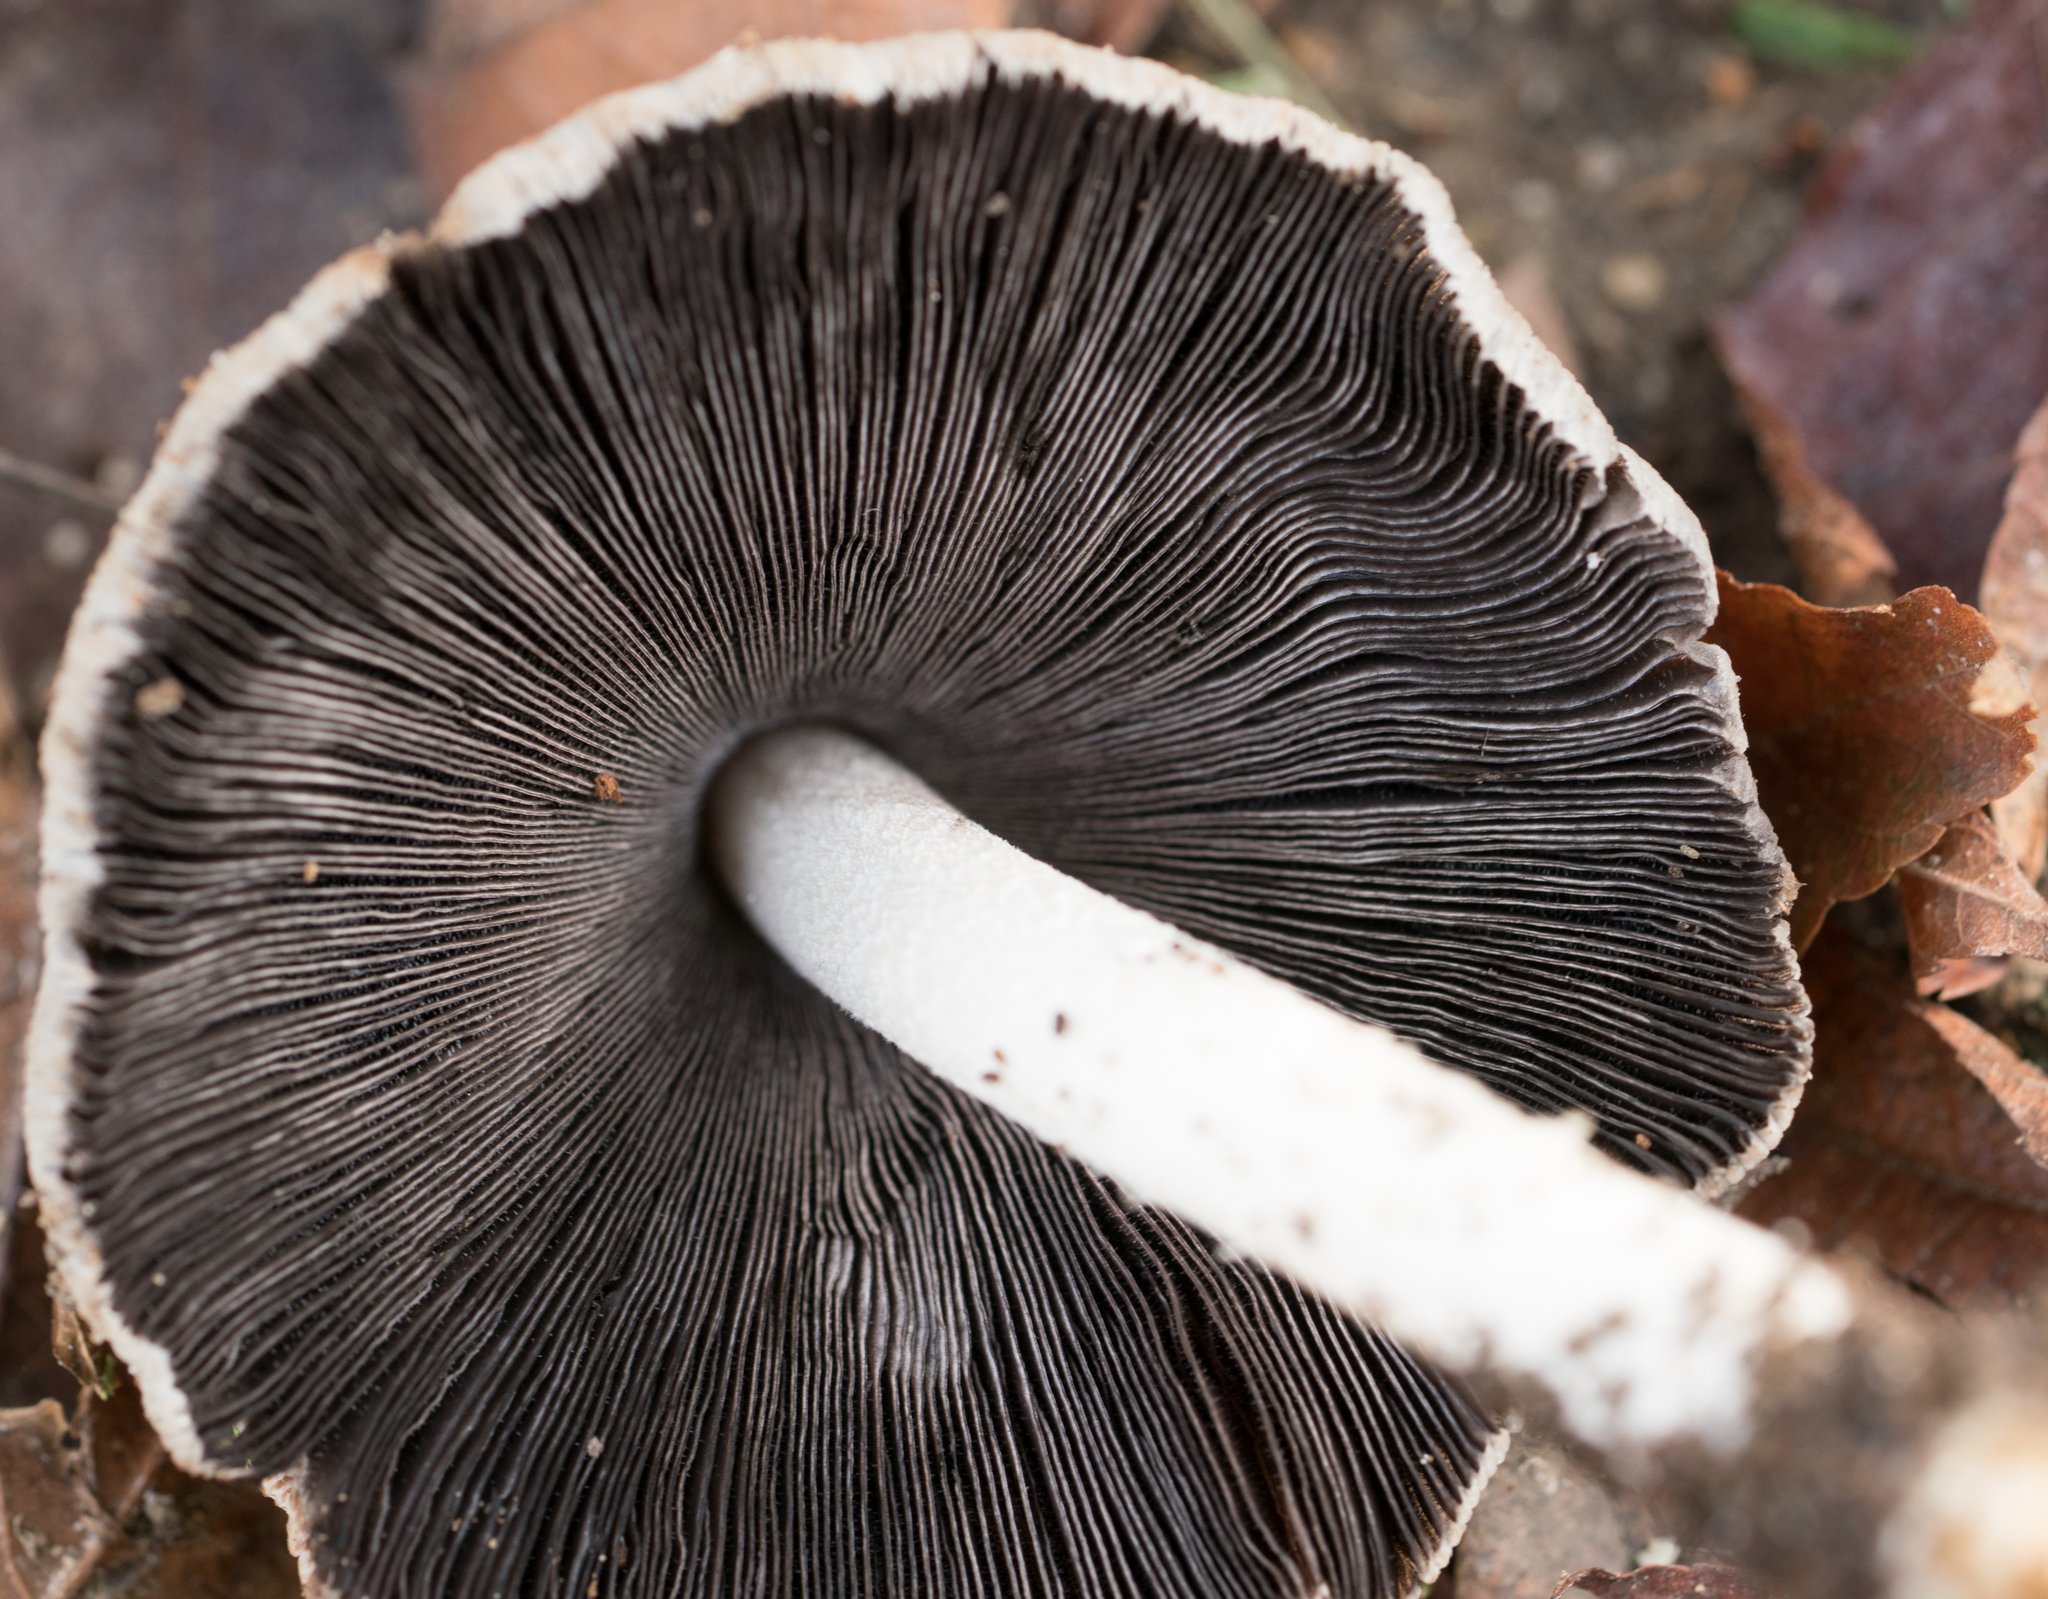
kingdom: Fungi
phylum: Basidiomycota
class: Agaricomycetes
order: Agaricales
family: Psathyrellaceae
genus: Coprinellus
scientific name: Coprinellus micaceus
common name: Glistening ink-cap
